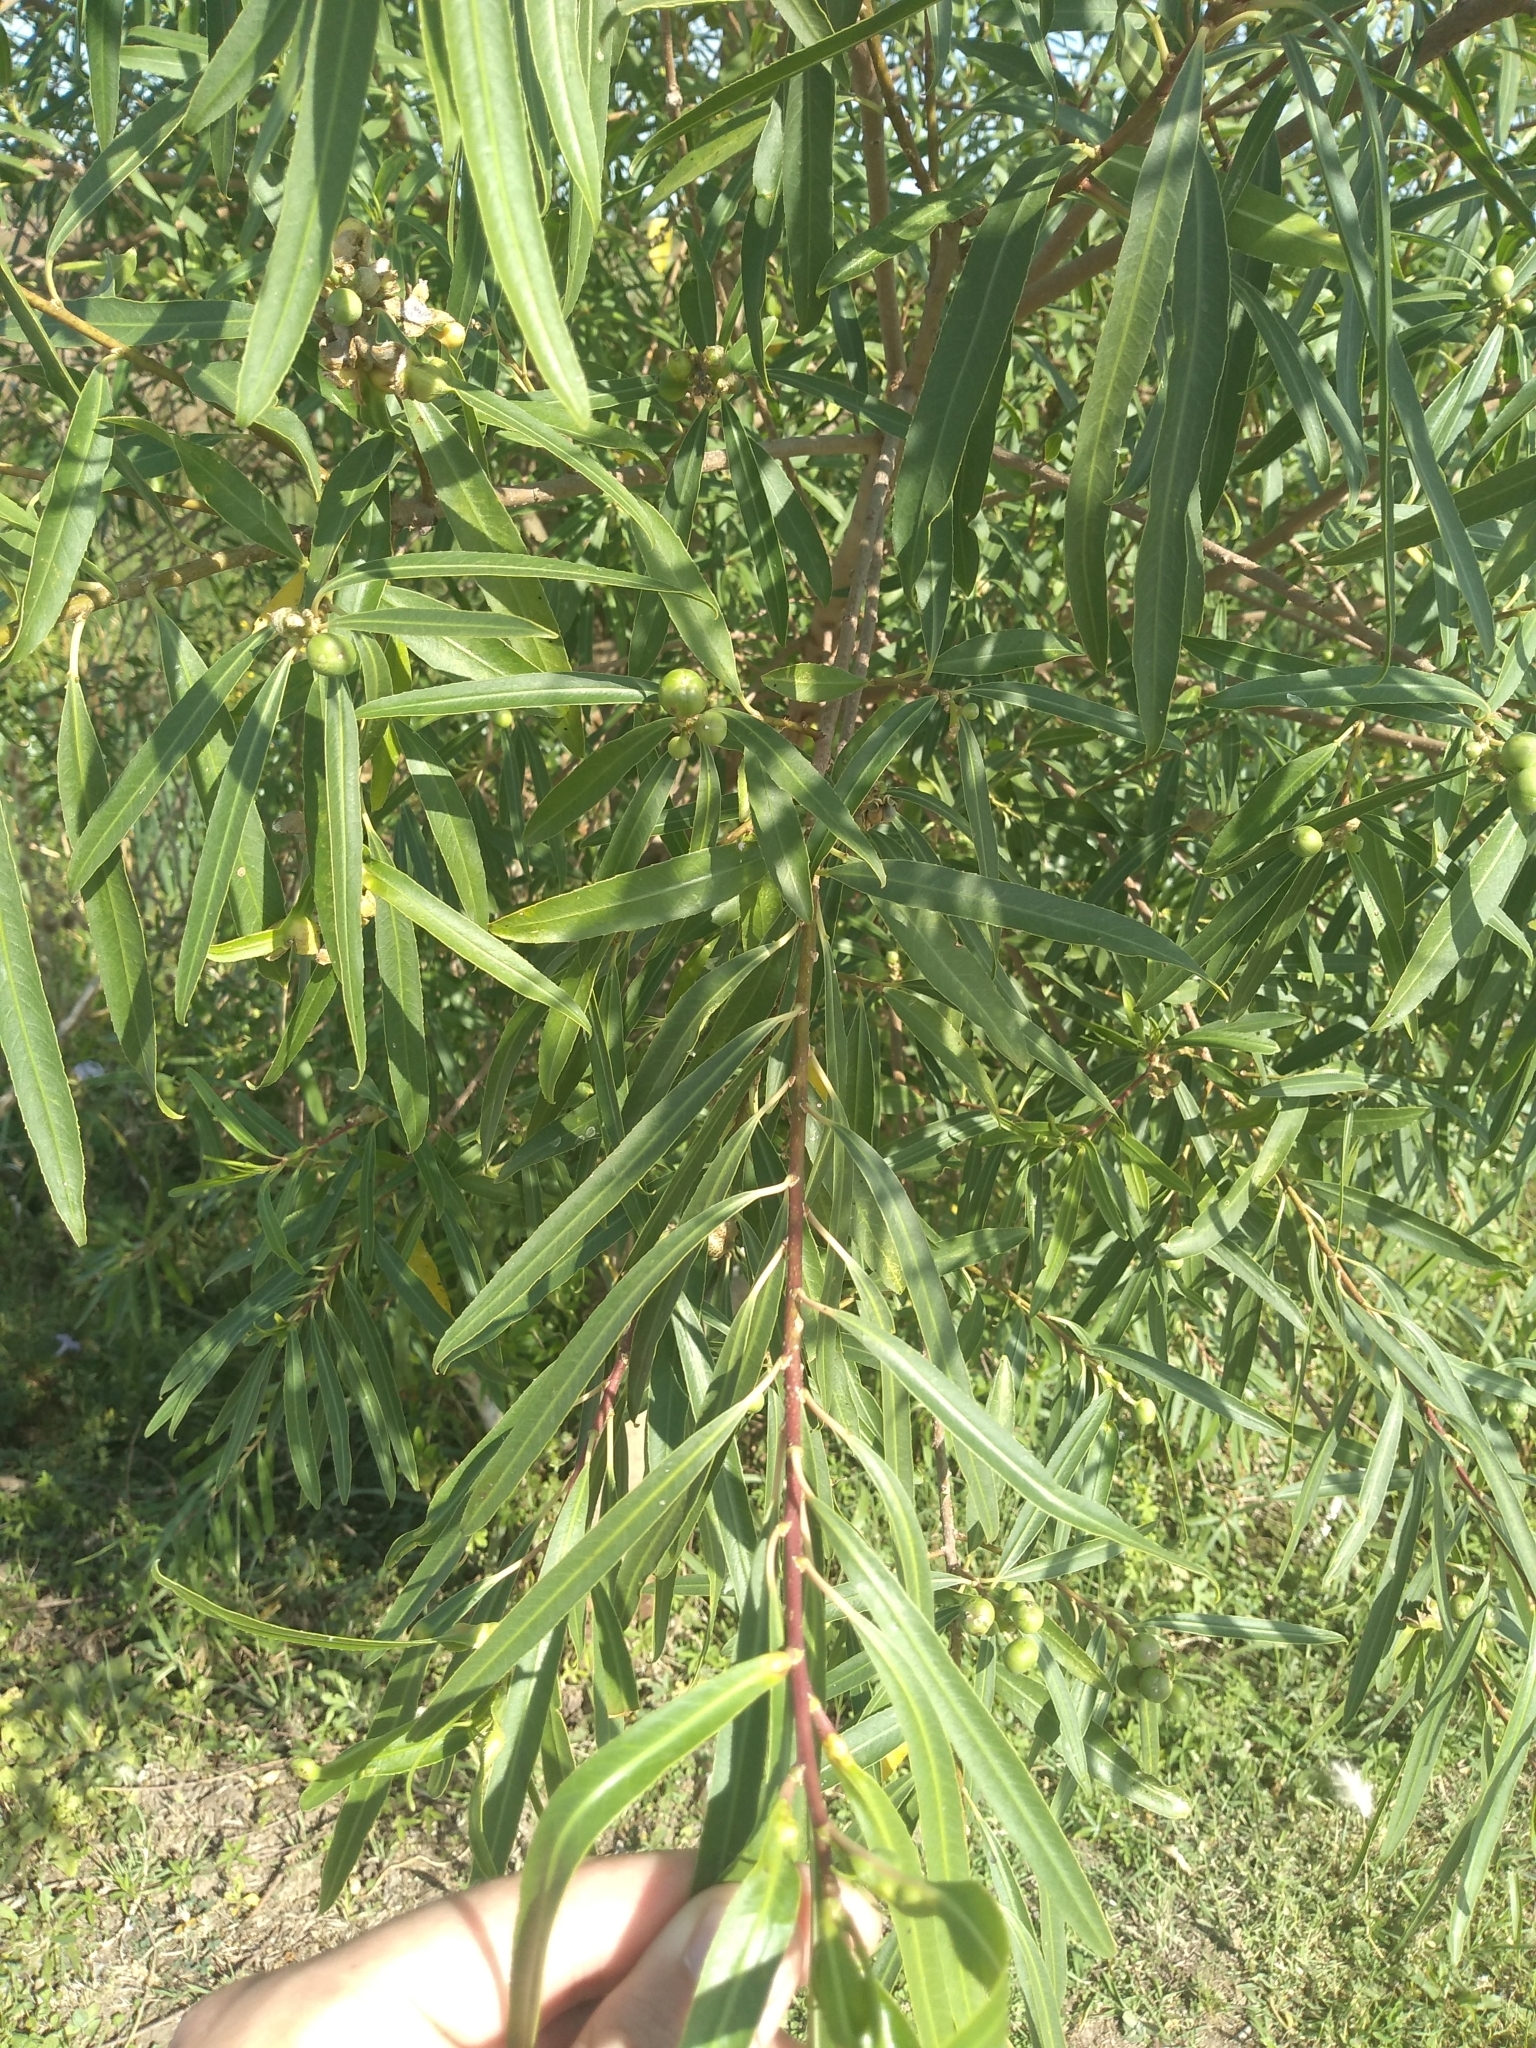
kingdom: Plantae
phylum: Tracheophyta
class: Magnoliopsida
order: Malpighiales
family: Euphorbiaceae
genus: Sapium
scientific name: Sapium haematospermum
